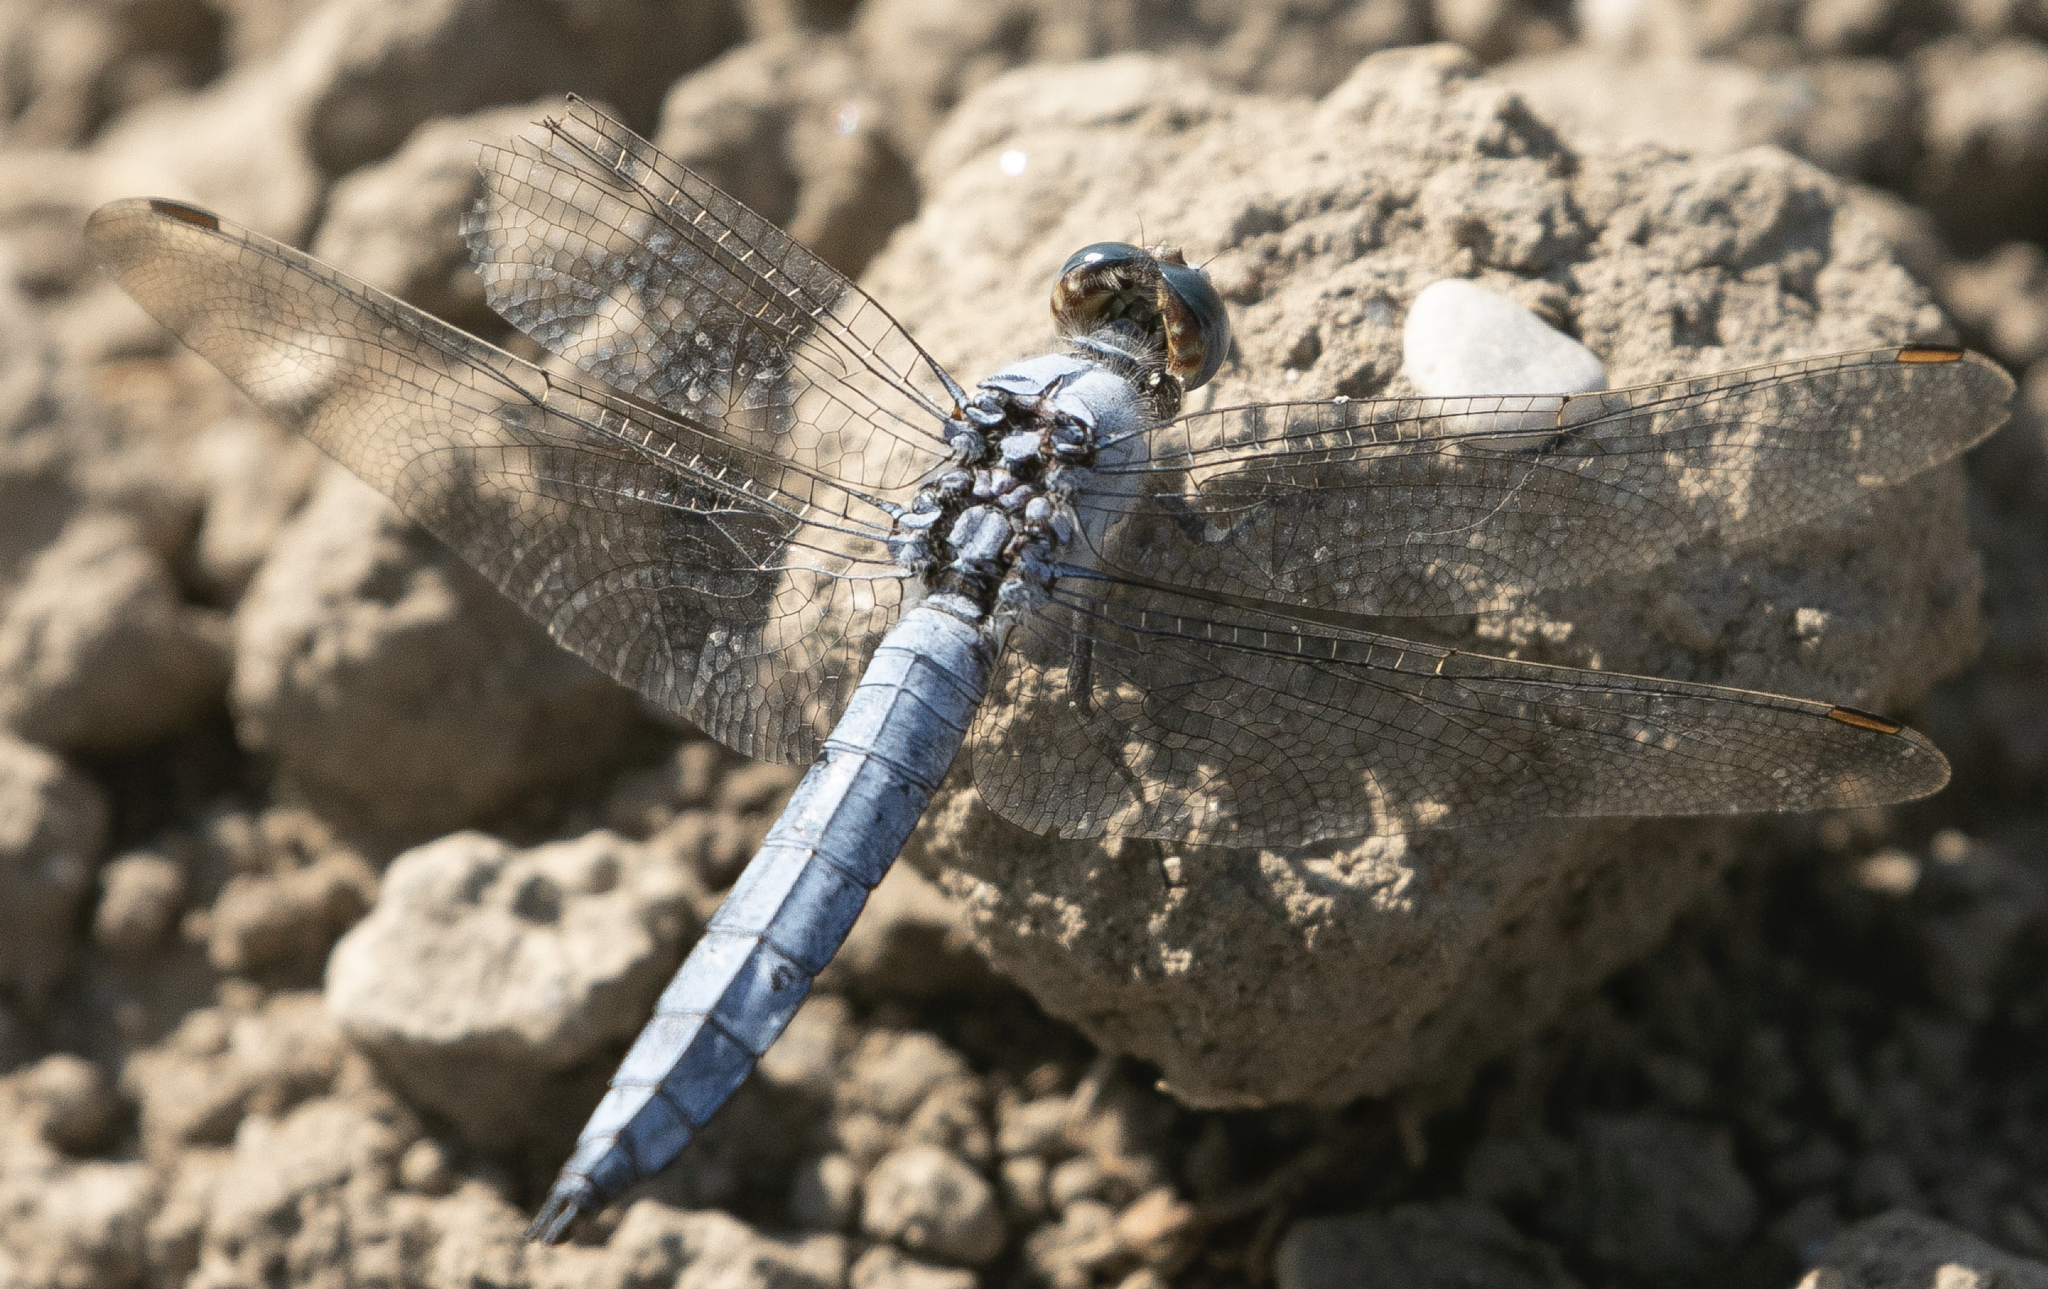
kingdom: Animalia
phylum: Arthropoda
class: Insecta
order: Odonata
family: Libellulidae
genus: Orthetrum
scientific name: Orthetrum brunneum
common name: Southern skimmer
